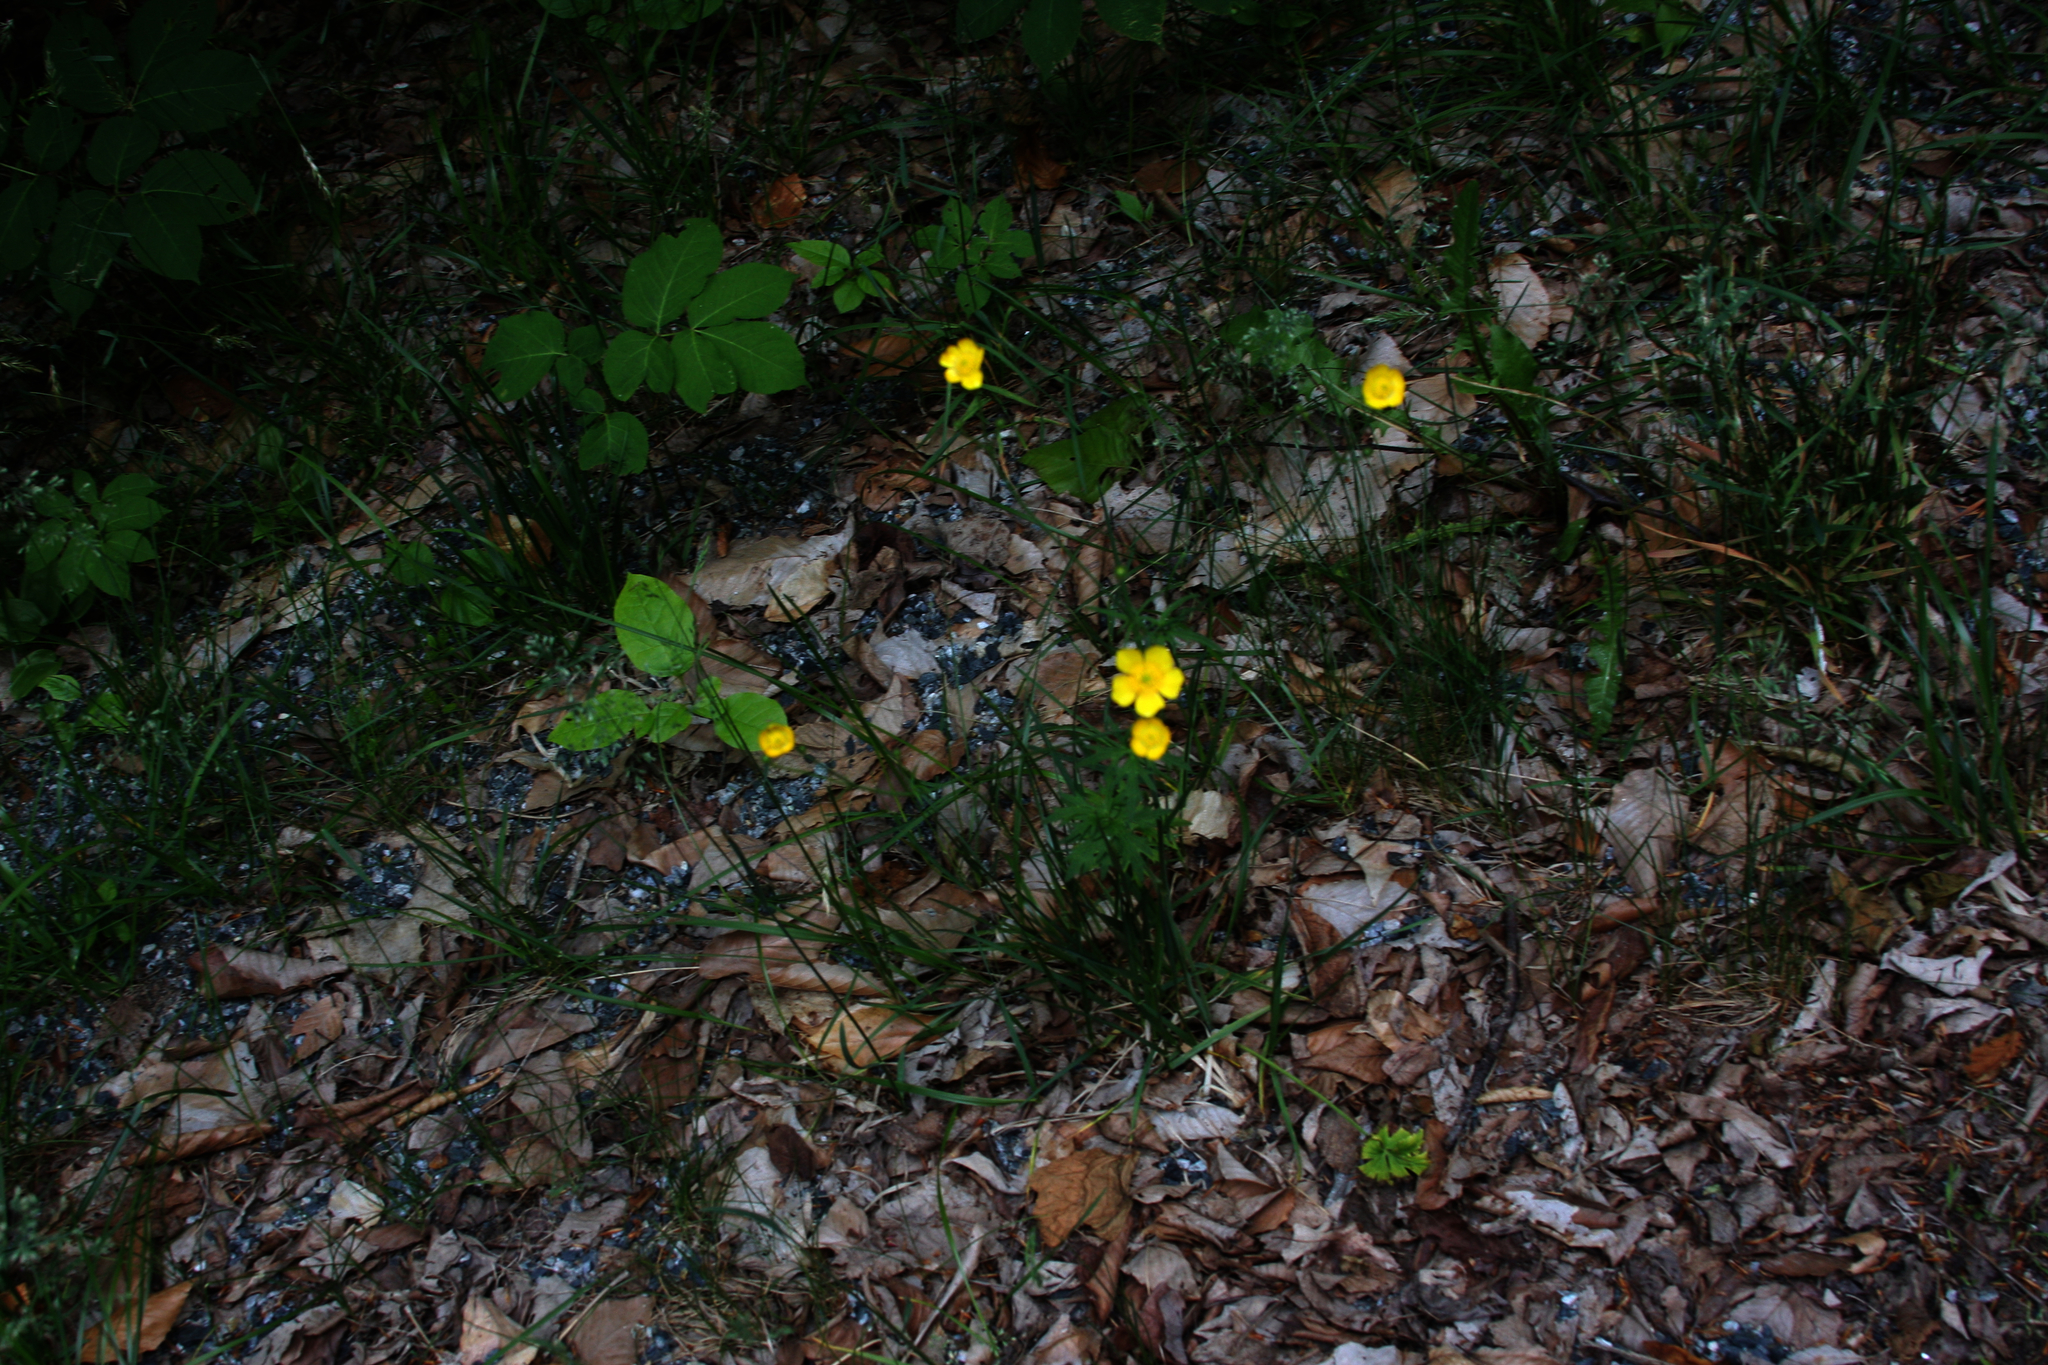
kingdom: Plantae
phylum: Tracheophyta
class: Magnoliopsida
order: Apiales
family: Araliaceae
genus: Aralia
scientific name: Aralia nudicaulis
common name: Wild sarsaparilla
